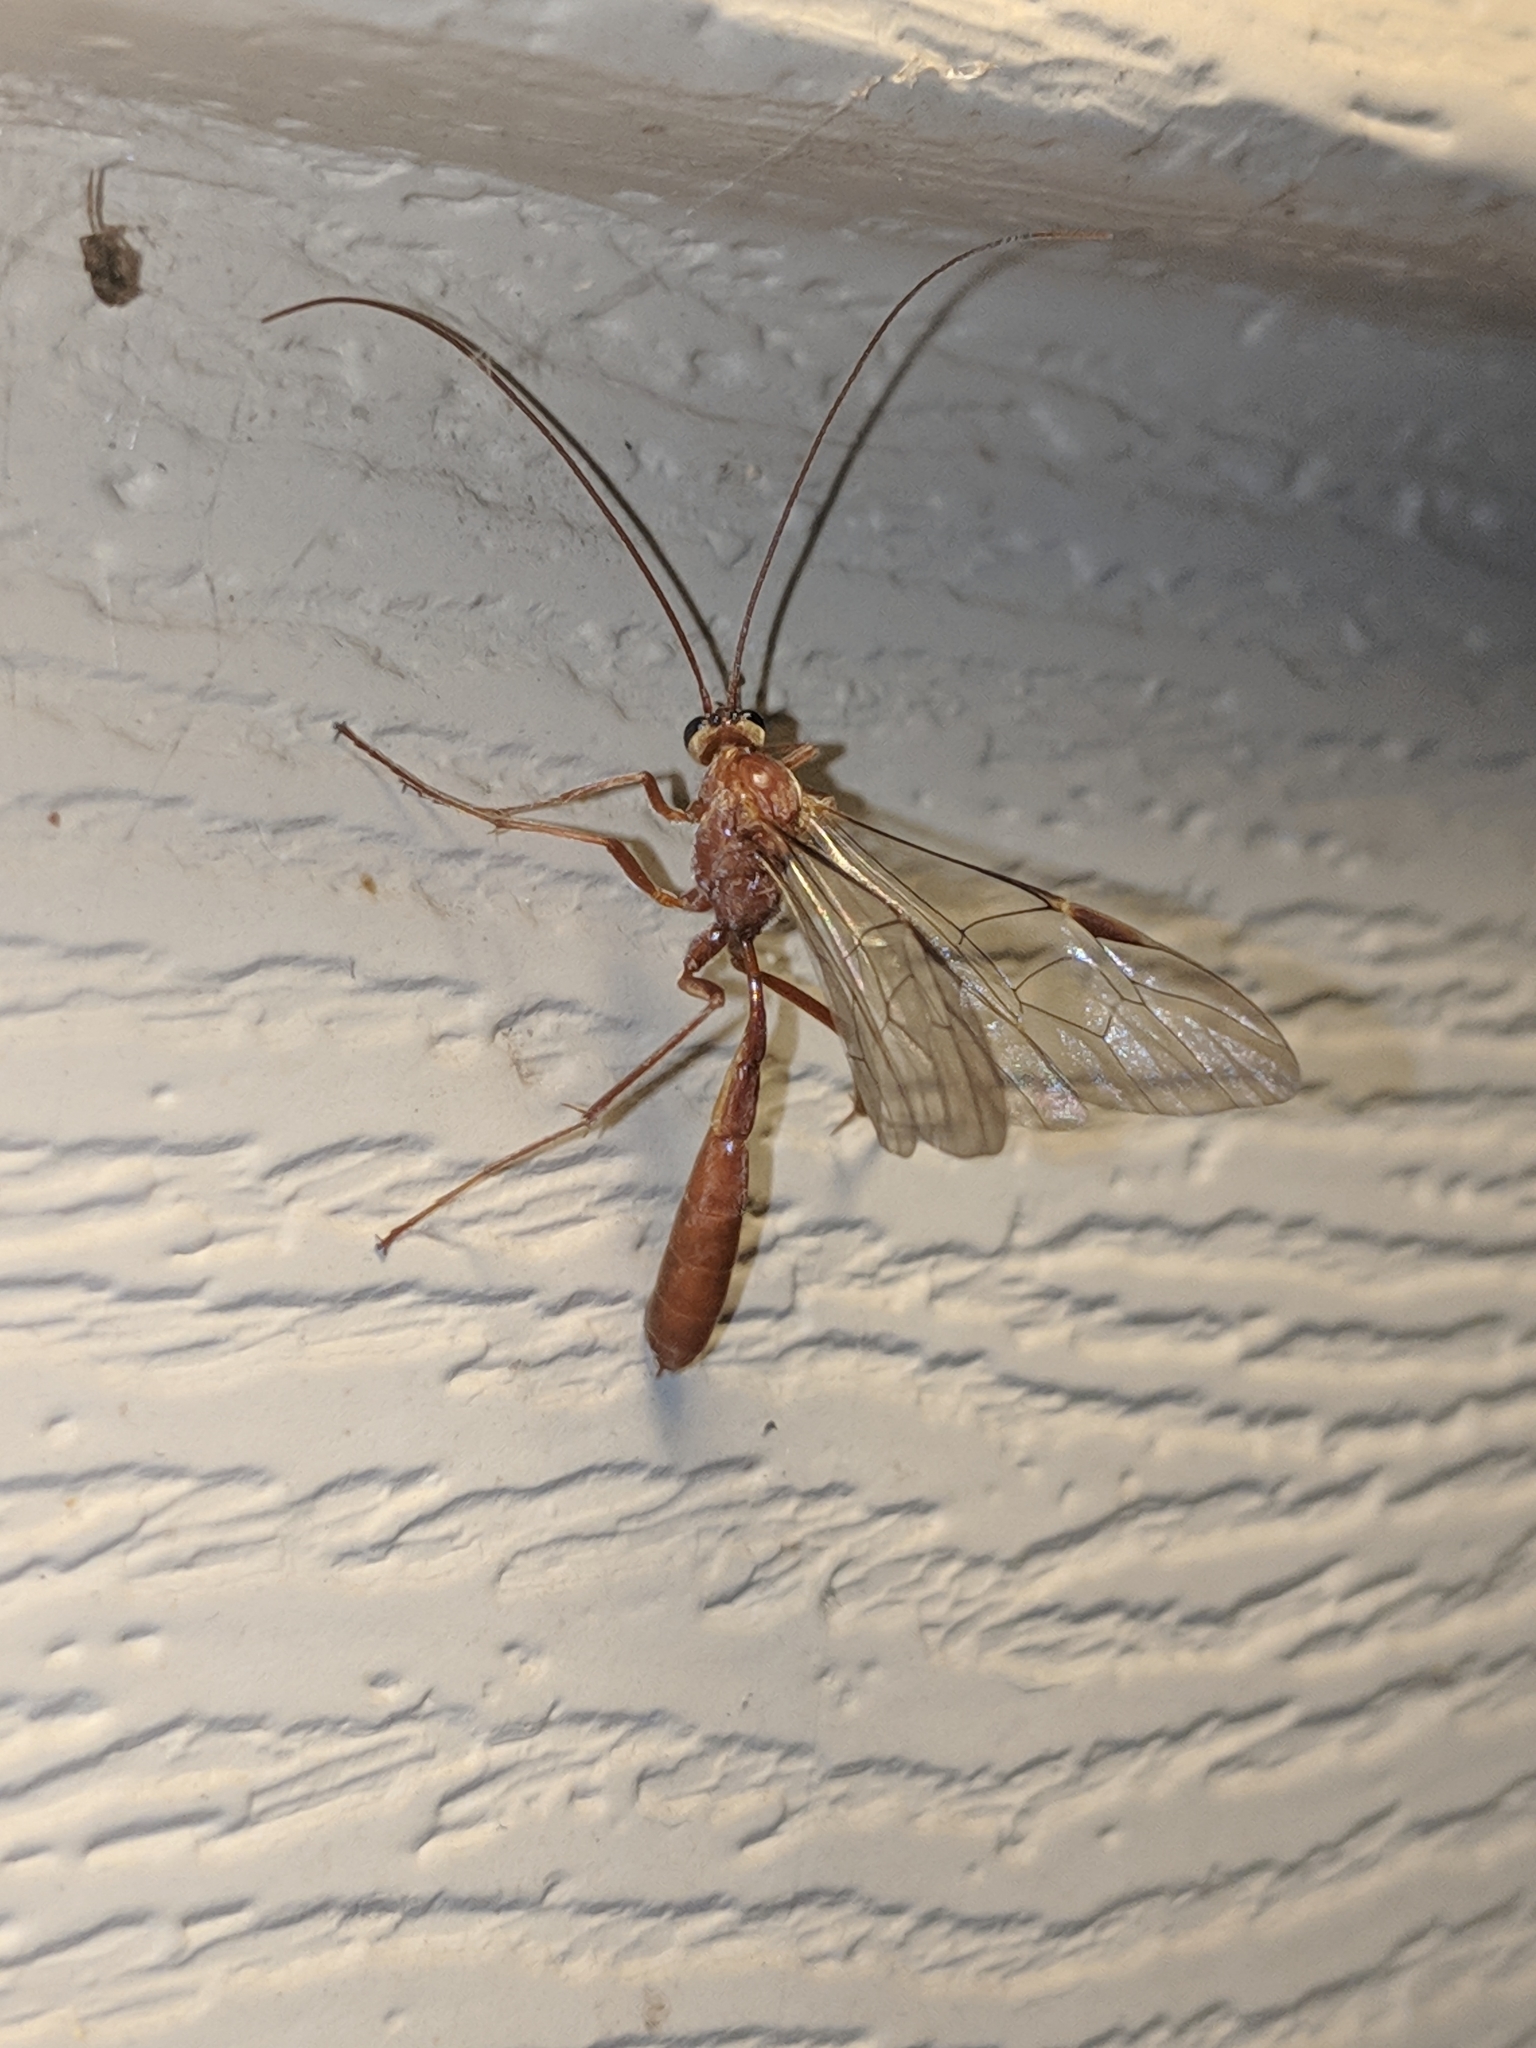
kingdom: Animalia
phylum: Arthropoda
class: Insecta
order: Hymenoptera
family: Ichneumonidae
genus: Ophion
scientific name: Ophion
